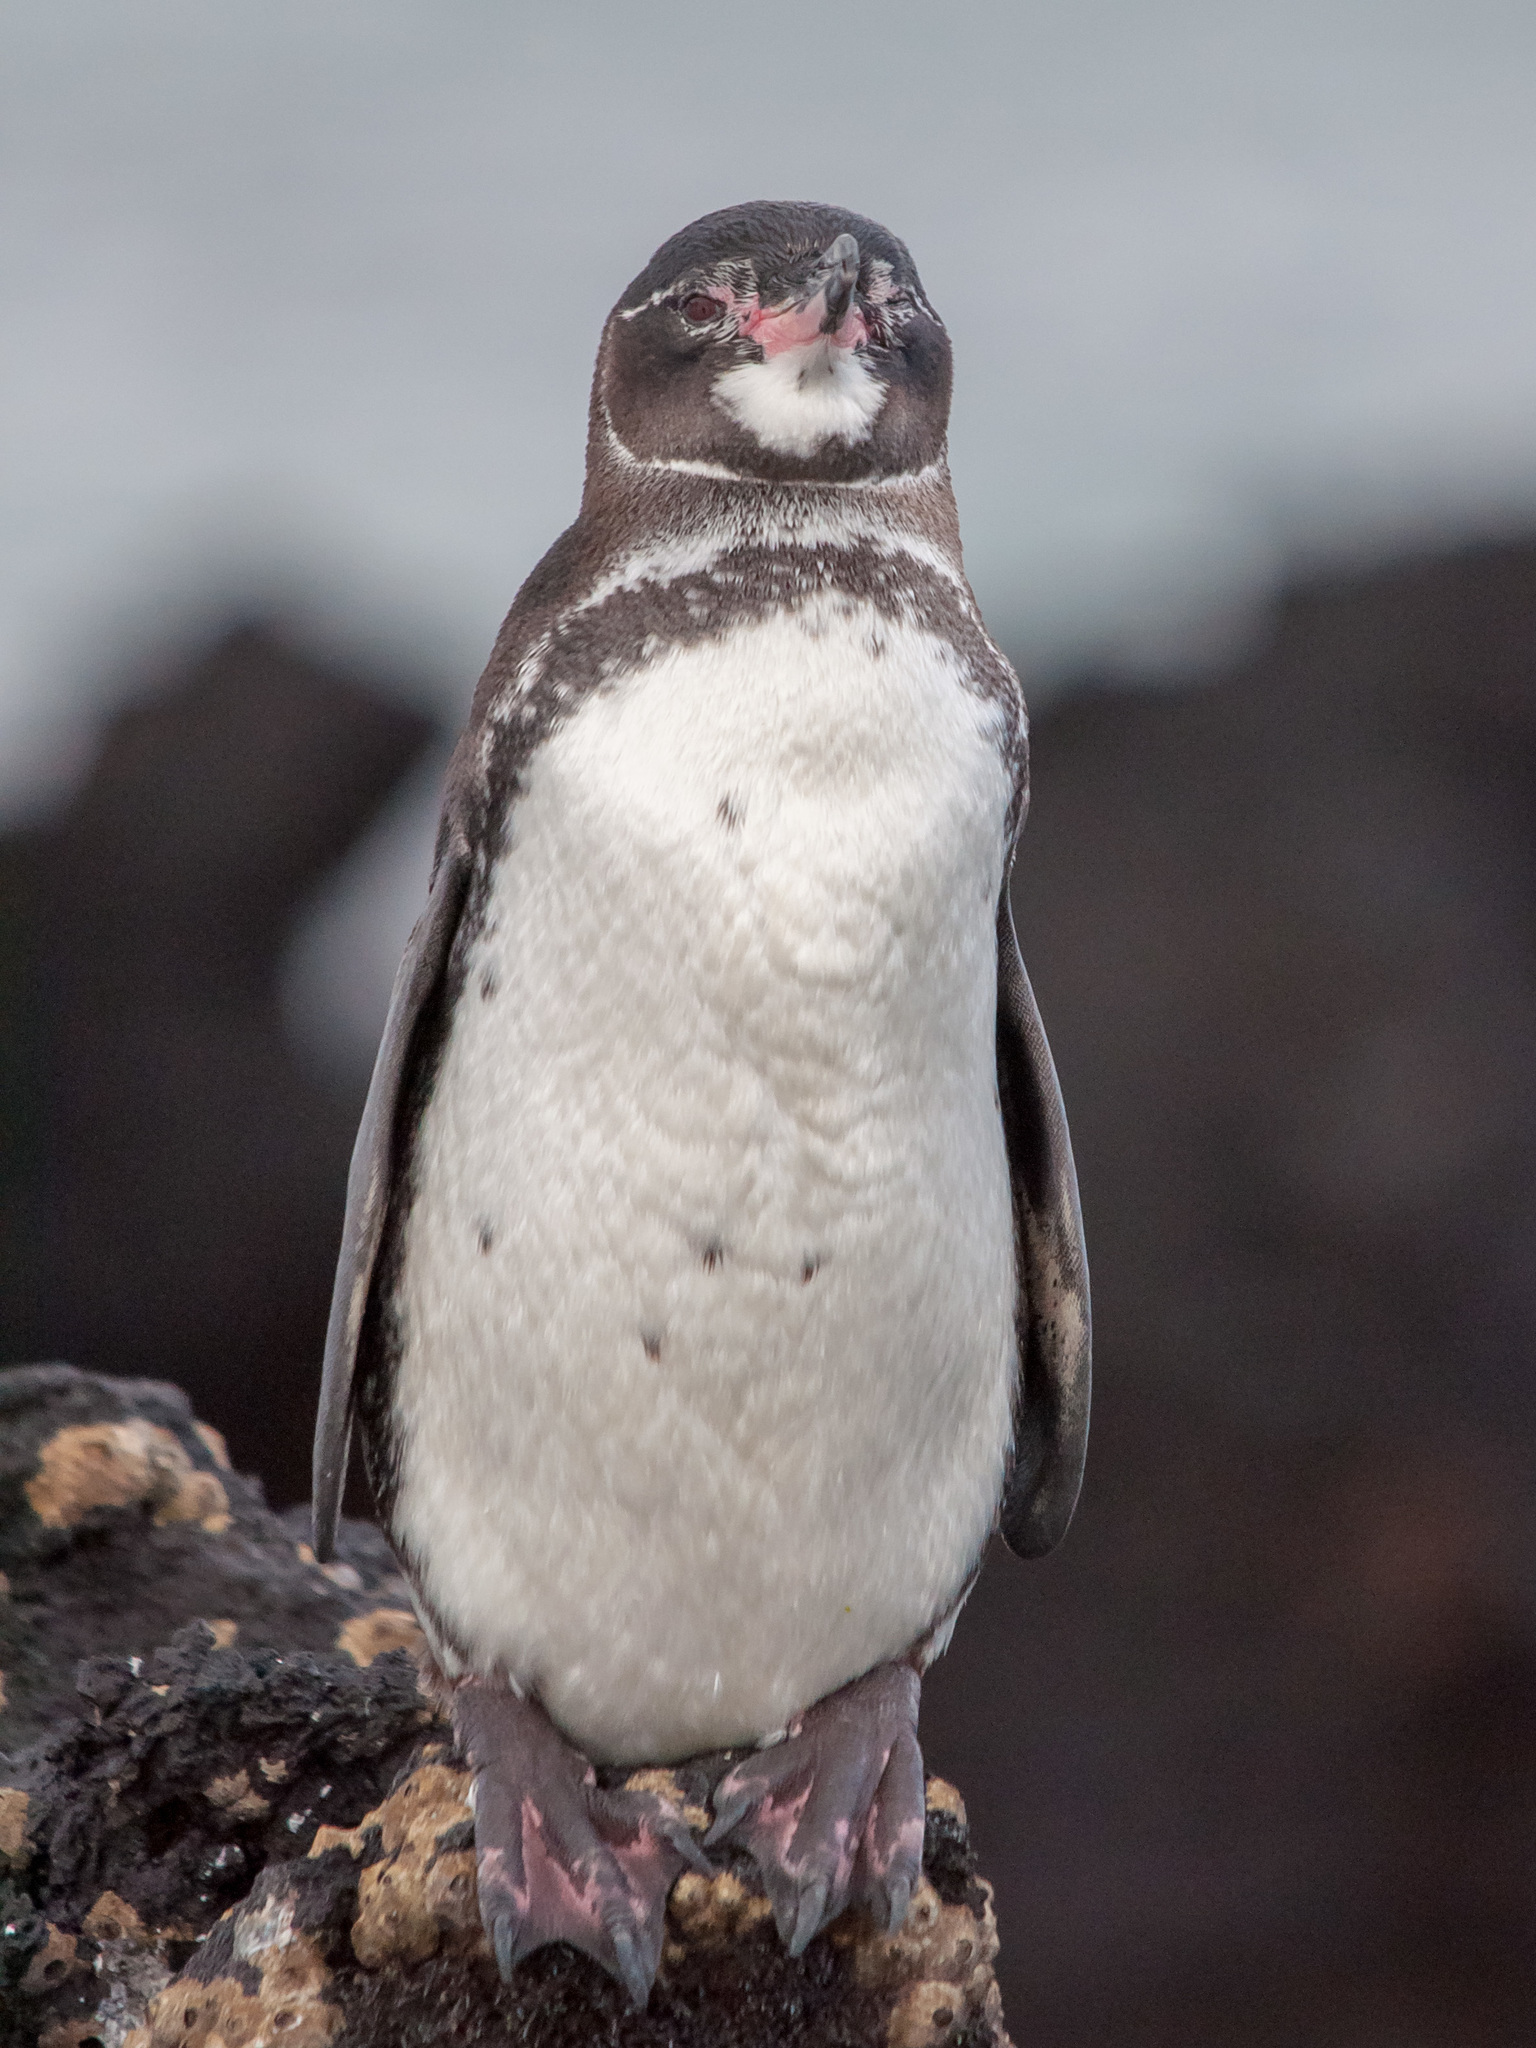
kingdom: Animalia
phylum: Chordata
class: Aves
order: Sphenisciformes
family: Spheniscidae
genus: Spheniscus
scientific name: Spheniscus mendiculus
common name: Galapagos penguin
